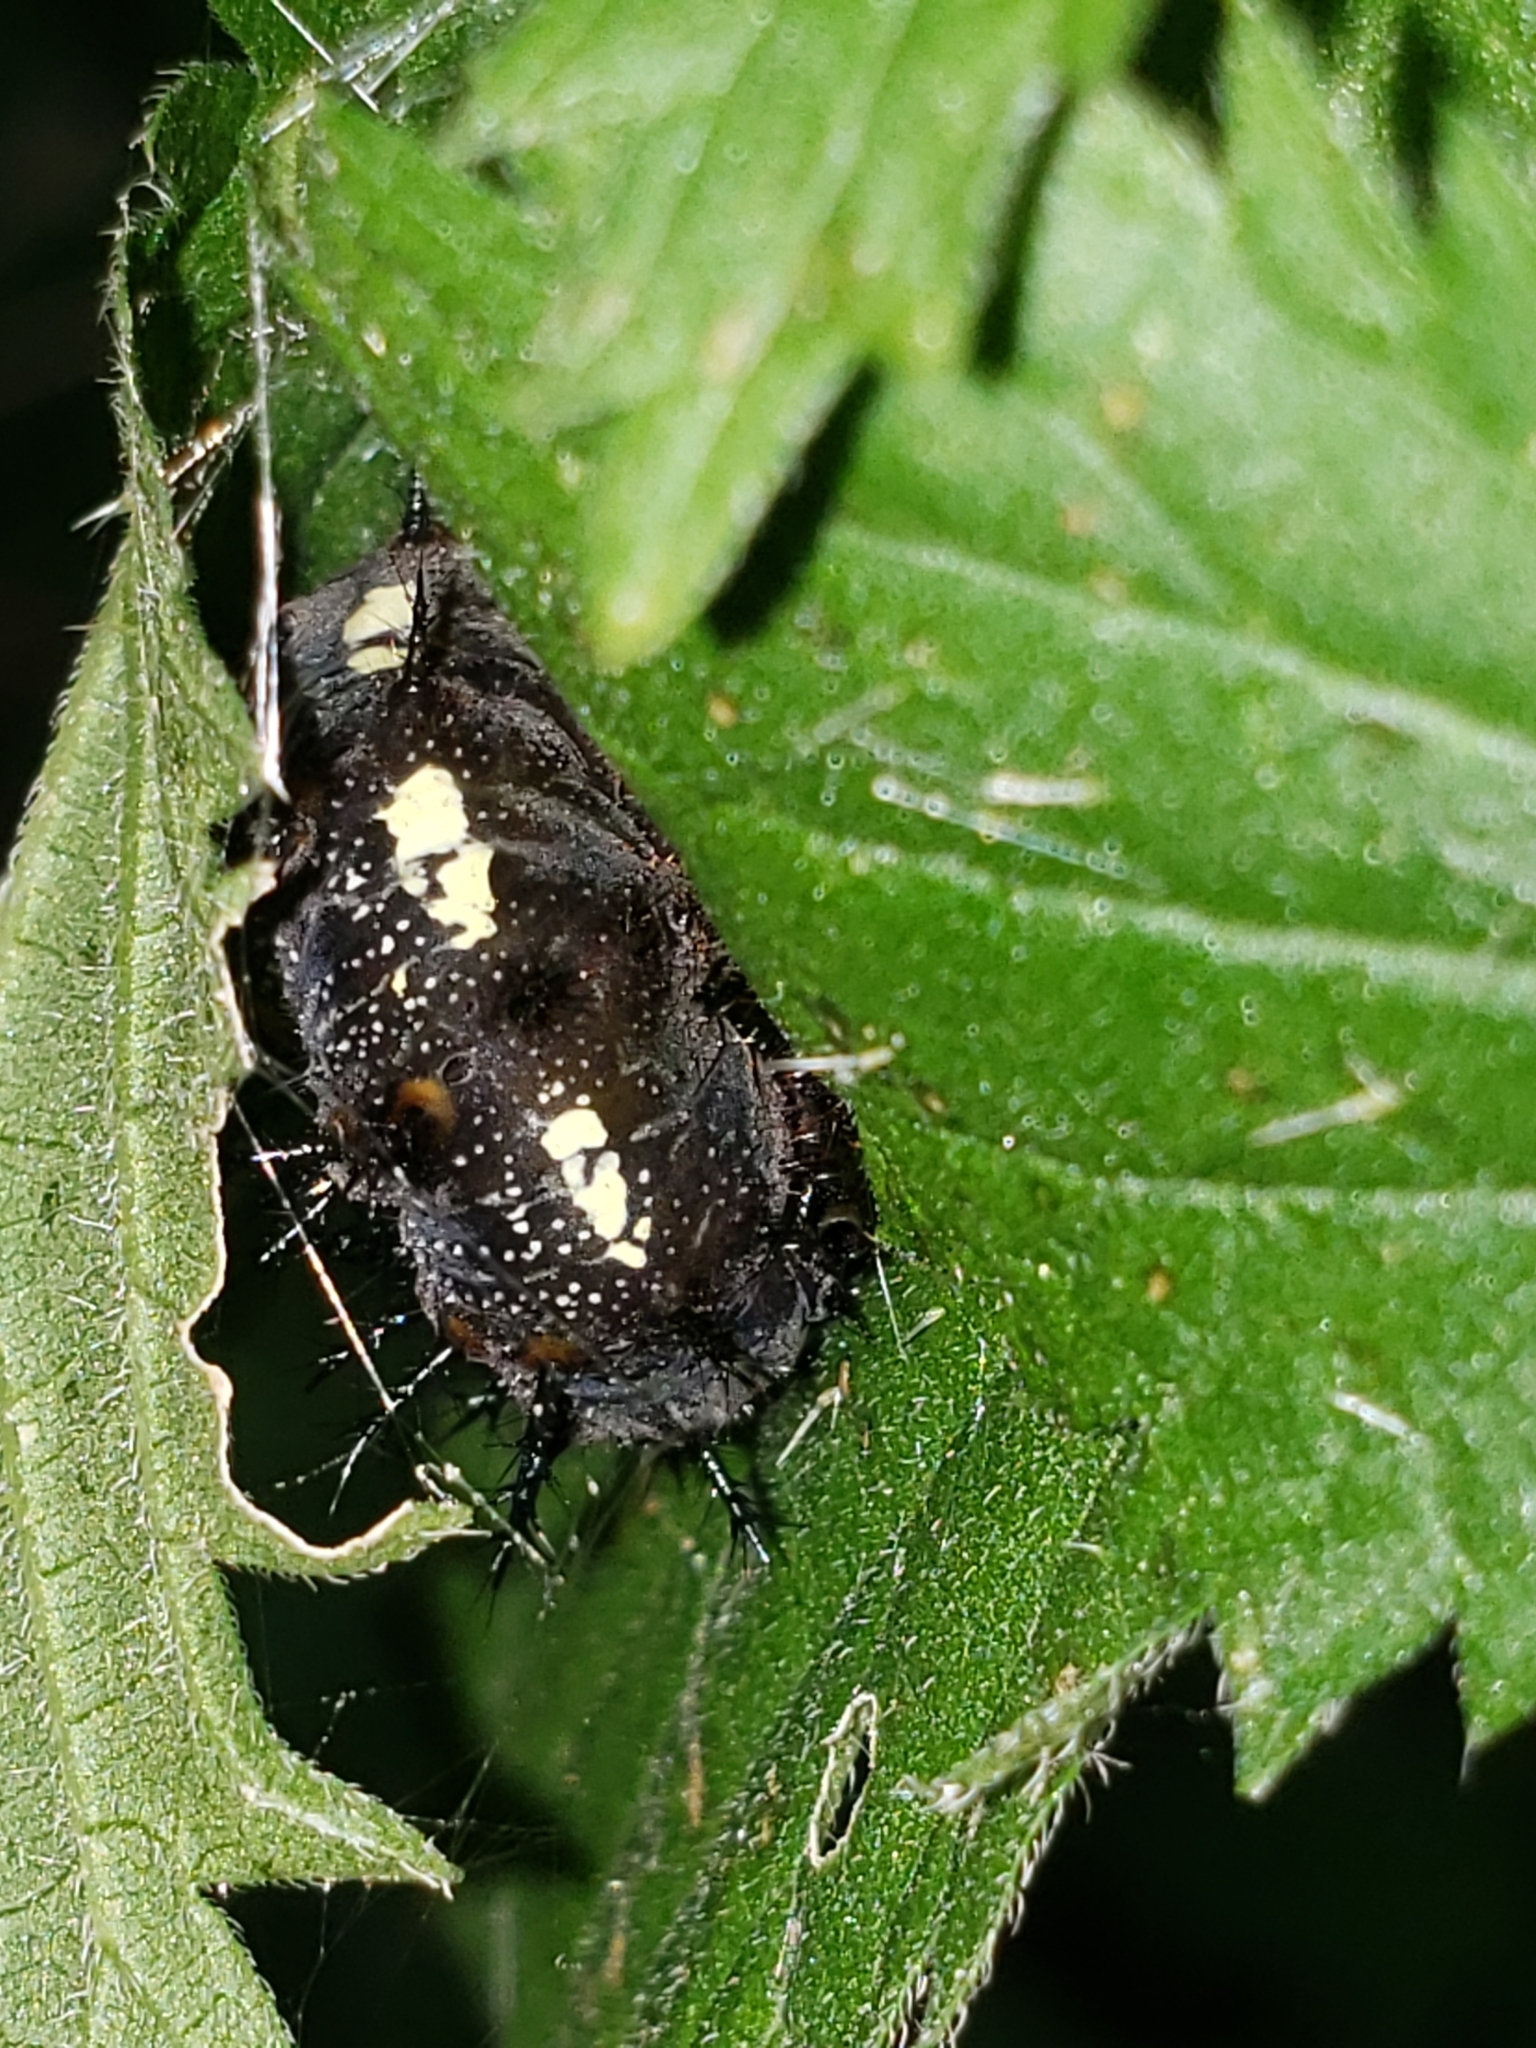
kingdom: Animalia
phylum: Arthropoda
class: Insecta
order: Lepidoptera
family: Nymphalidae
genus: Vanessa
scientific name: Vanessa atalanta
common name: Red admiral
